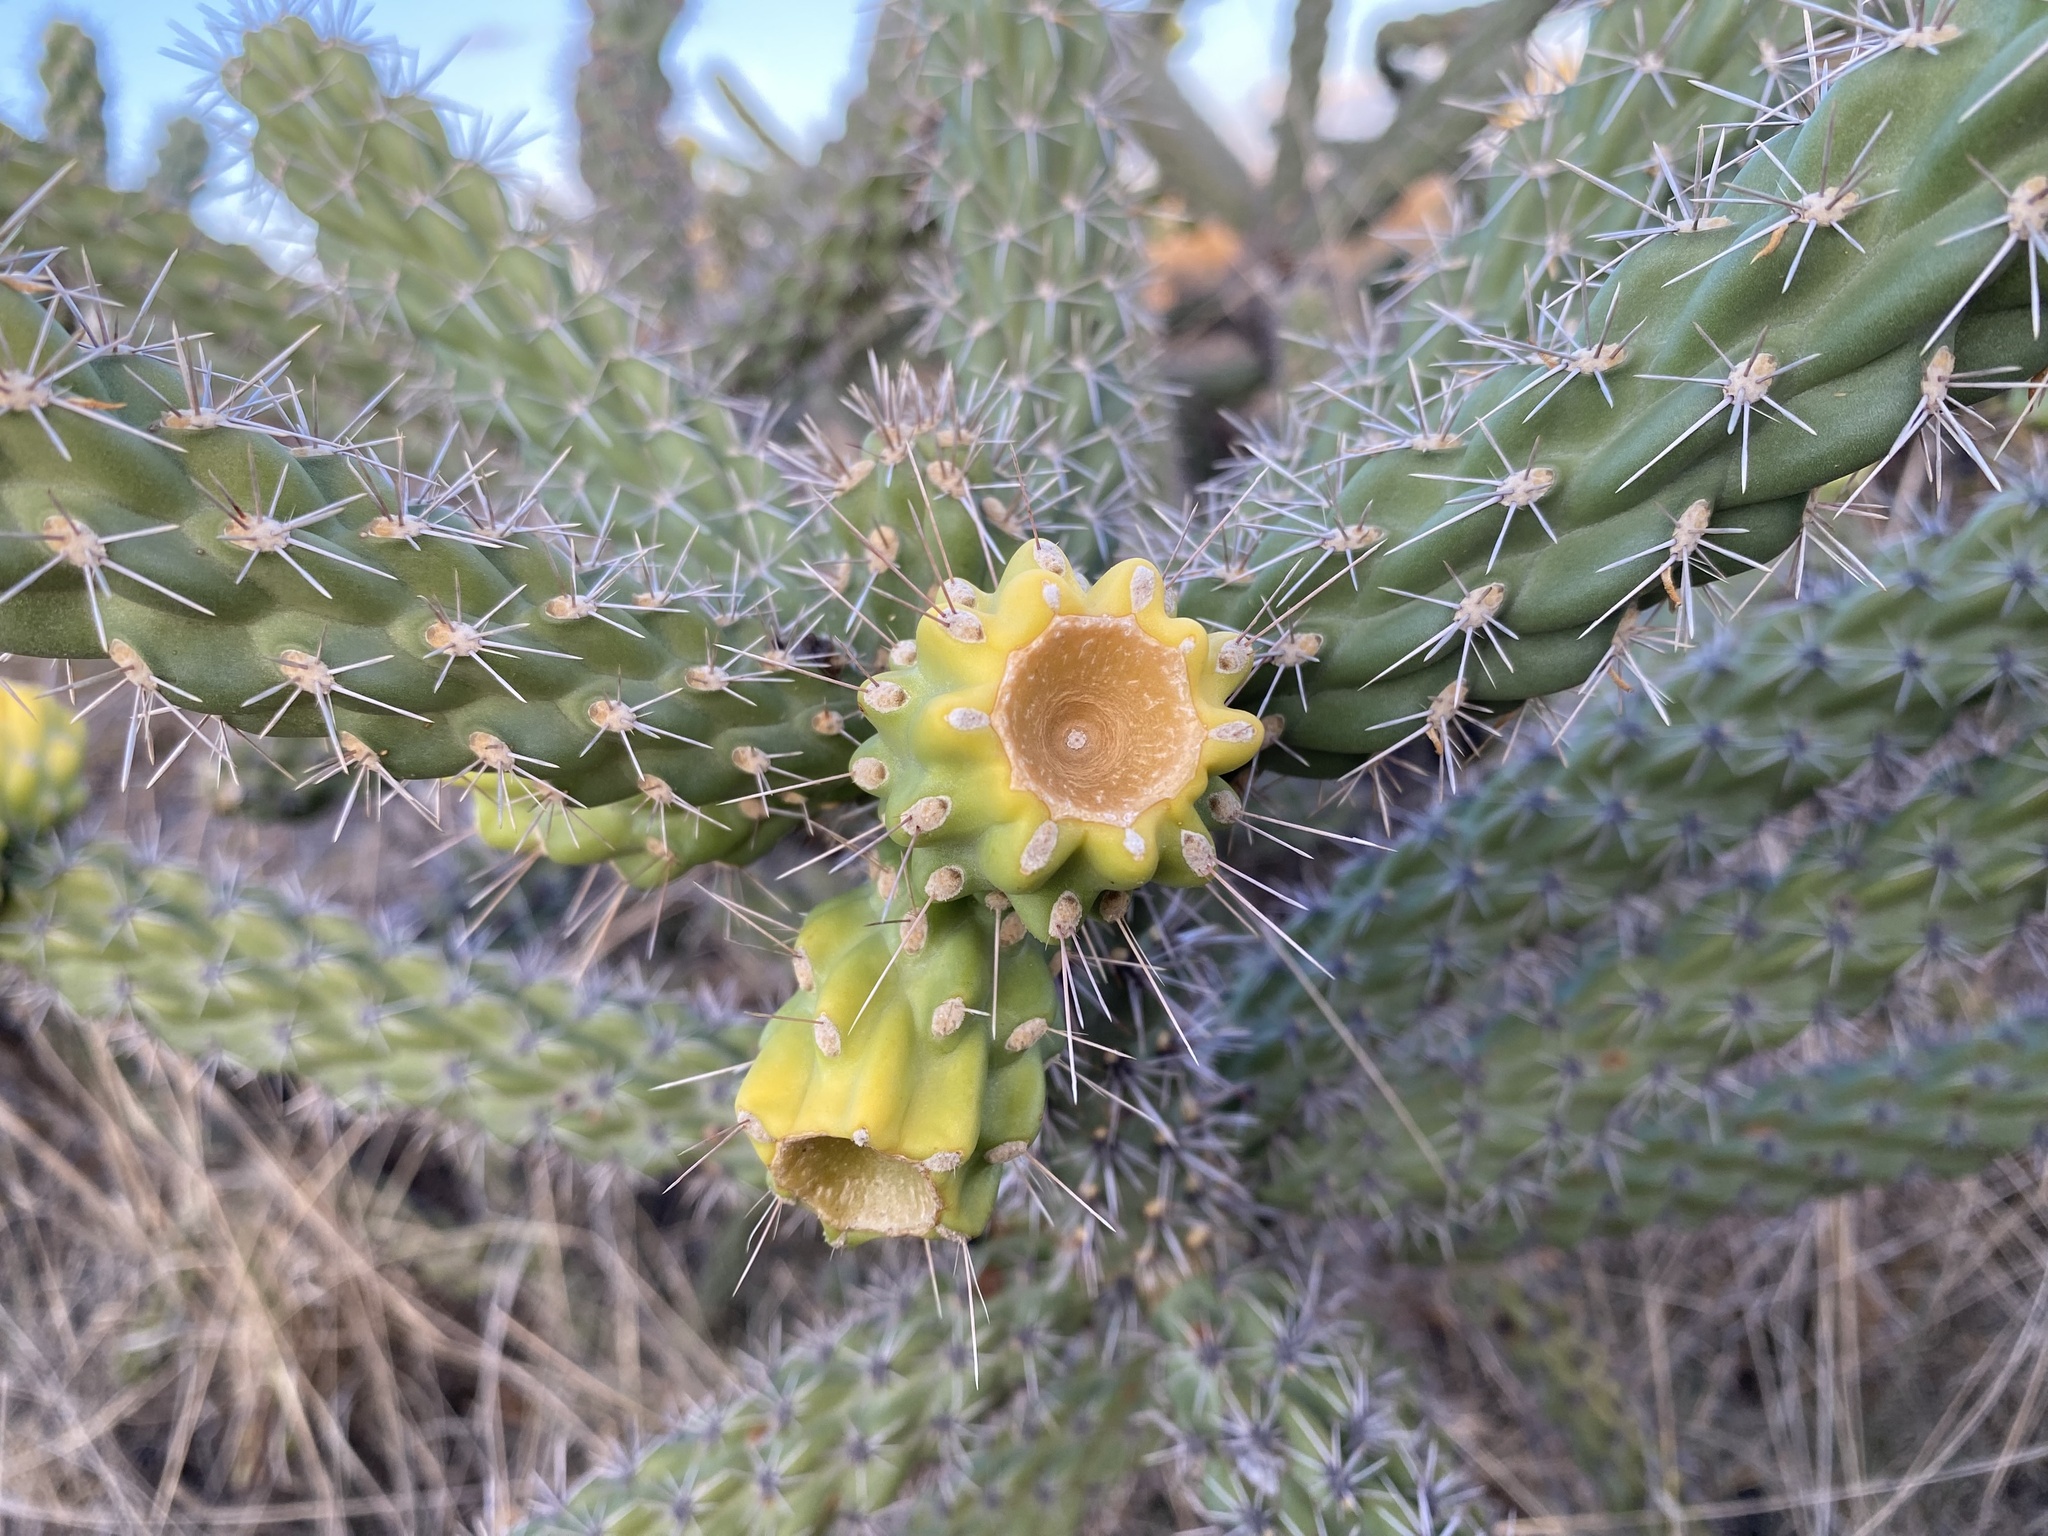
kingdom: Plantae
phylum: Tracheophyta
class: Magnoliopsida
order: Caryophyllales
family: Cactaceae
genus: Cylindropuntia
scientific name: Cylindropuntia imbricata
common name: Candelabrum cactus
